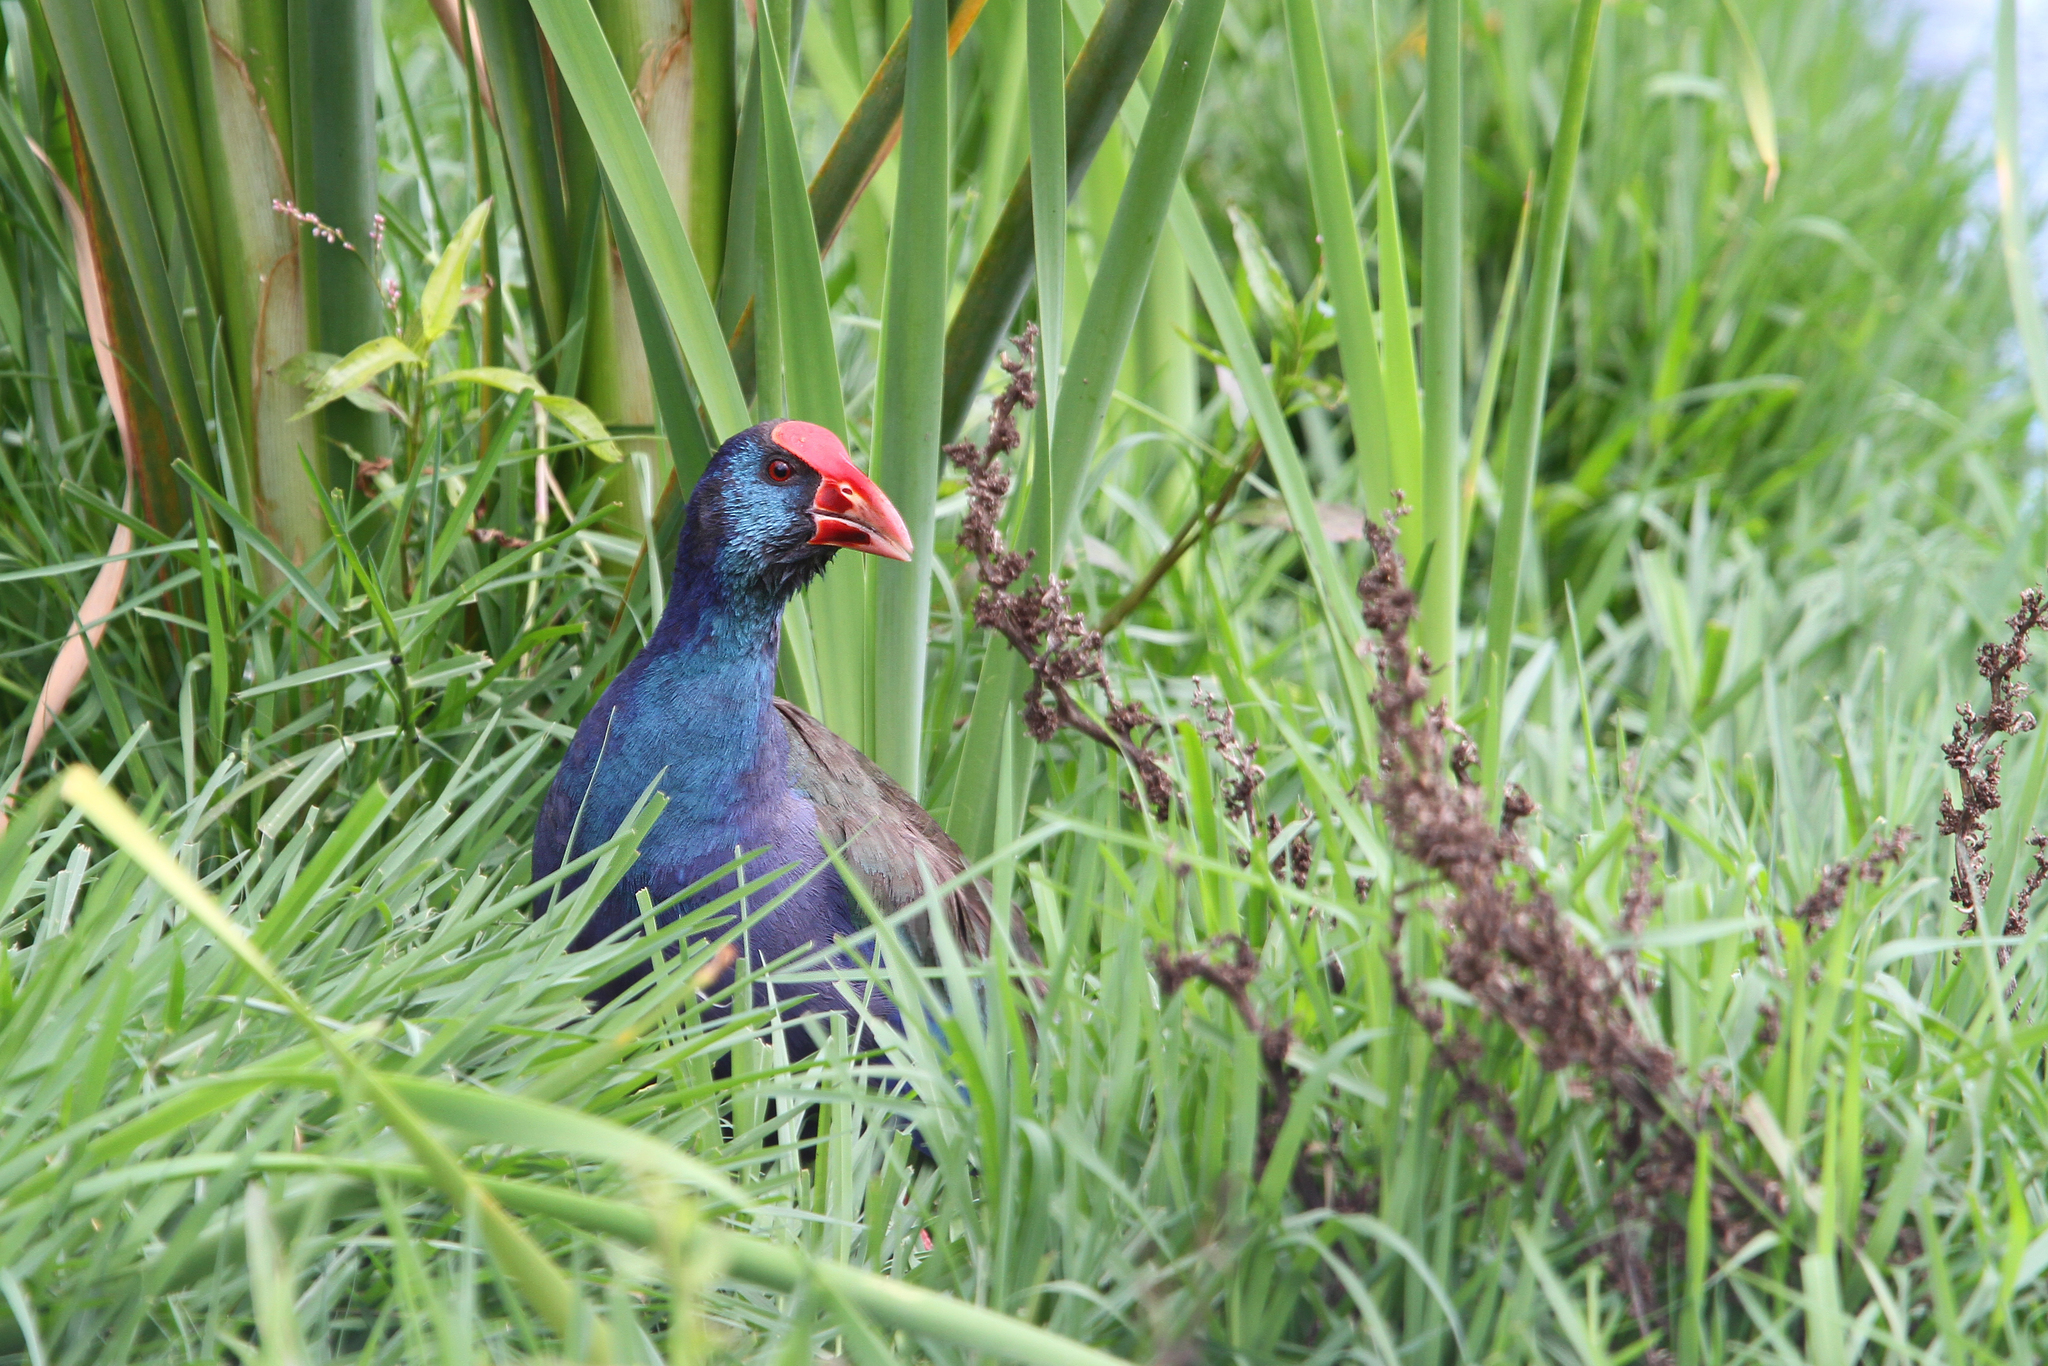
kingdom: Animalia
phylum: Chordata
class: Aves
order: Gruiformes
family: Rallidae
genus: Porphyrio
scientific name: Porphyrio porphyrio
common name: Purple swamphen
